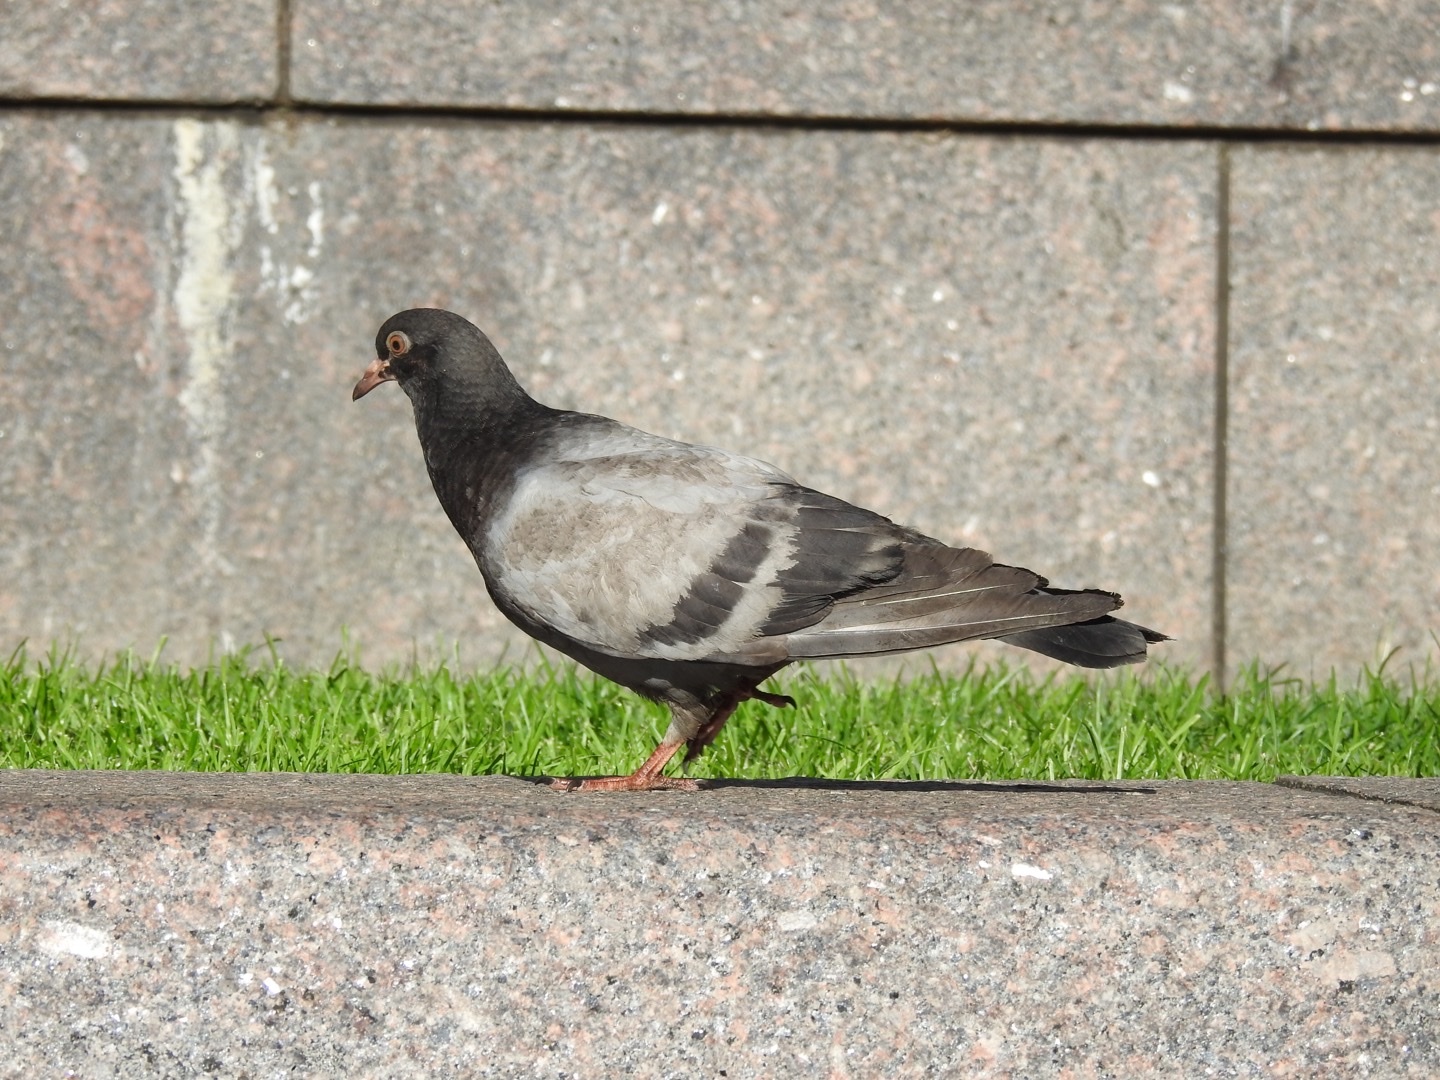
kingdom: Animalia
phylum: Chordata
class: Aves
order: Columbiformes
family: Columbidae
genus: Columba
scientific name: Columba livia
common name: Rock pigeon
